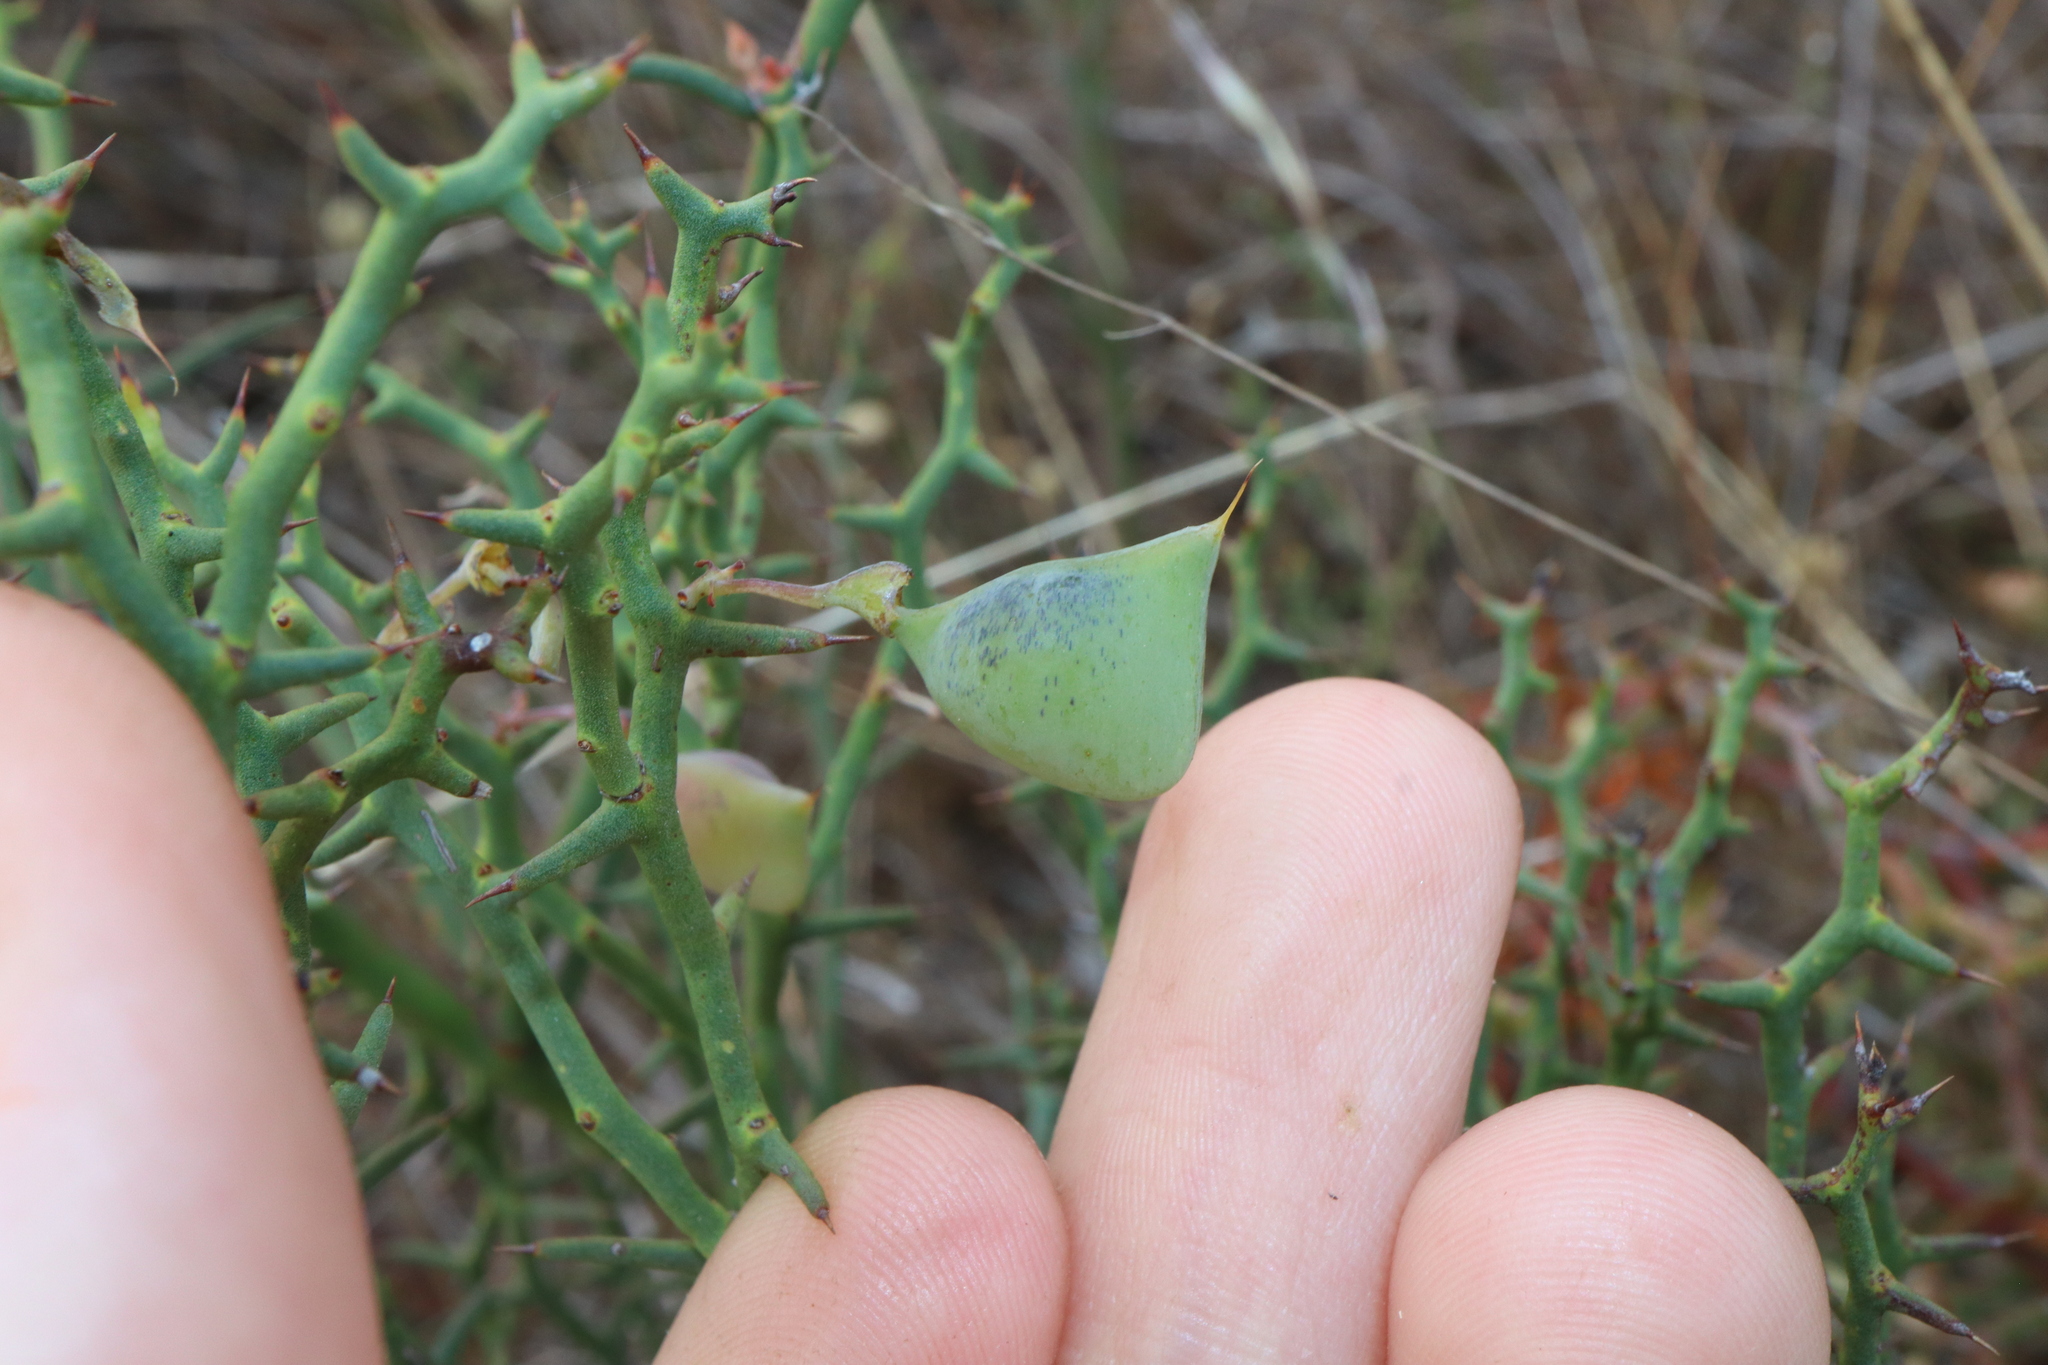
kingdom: Plantae
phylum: Tracheophyta
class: Magnoliopsida
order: Fabales
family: Fabaceae
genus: Daviesia
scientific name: Daviesia incrassata
